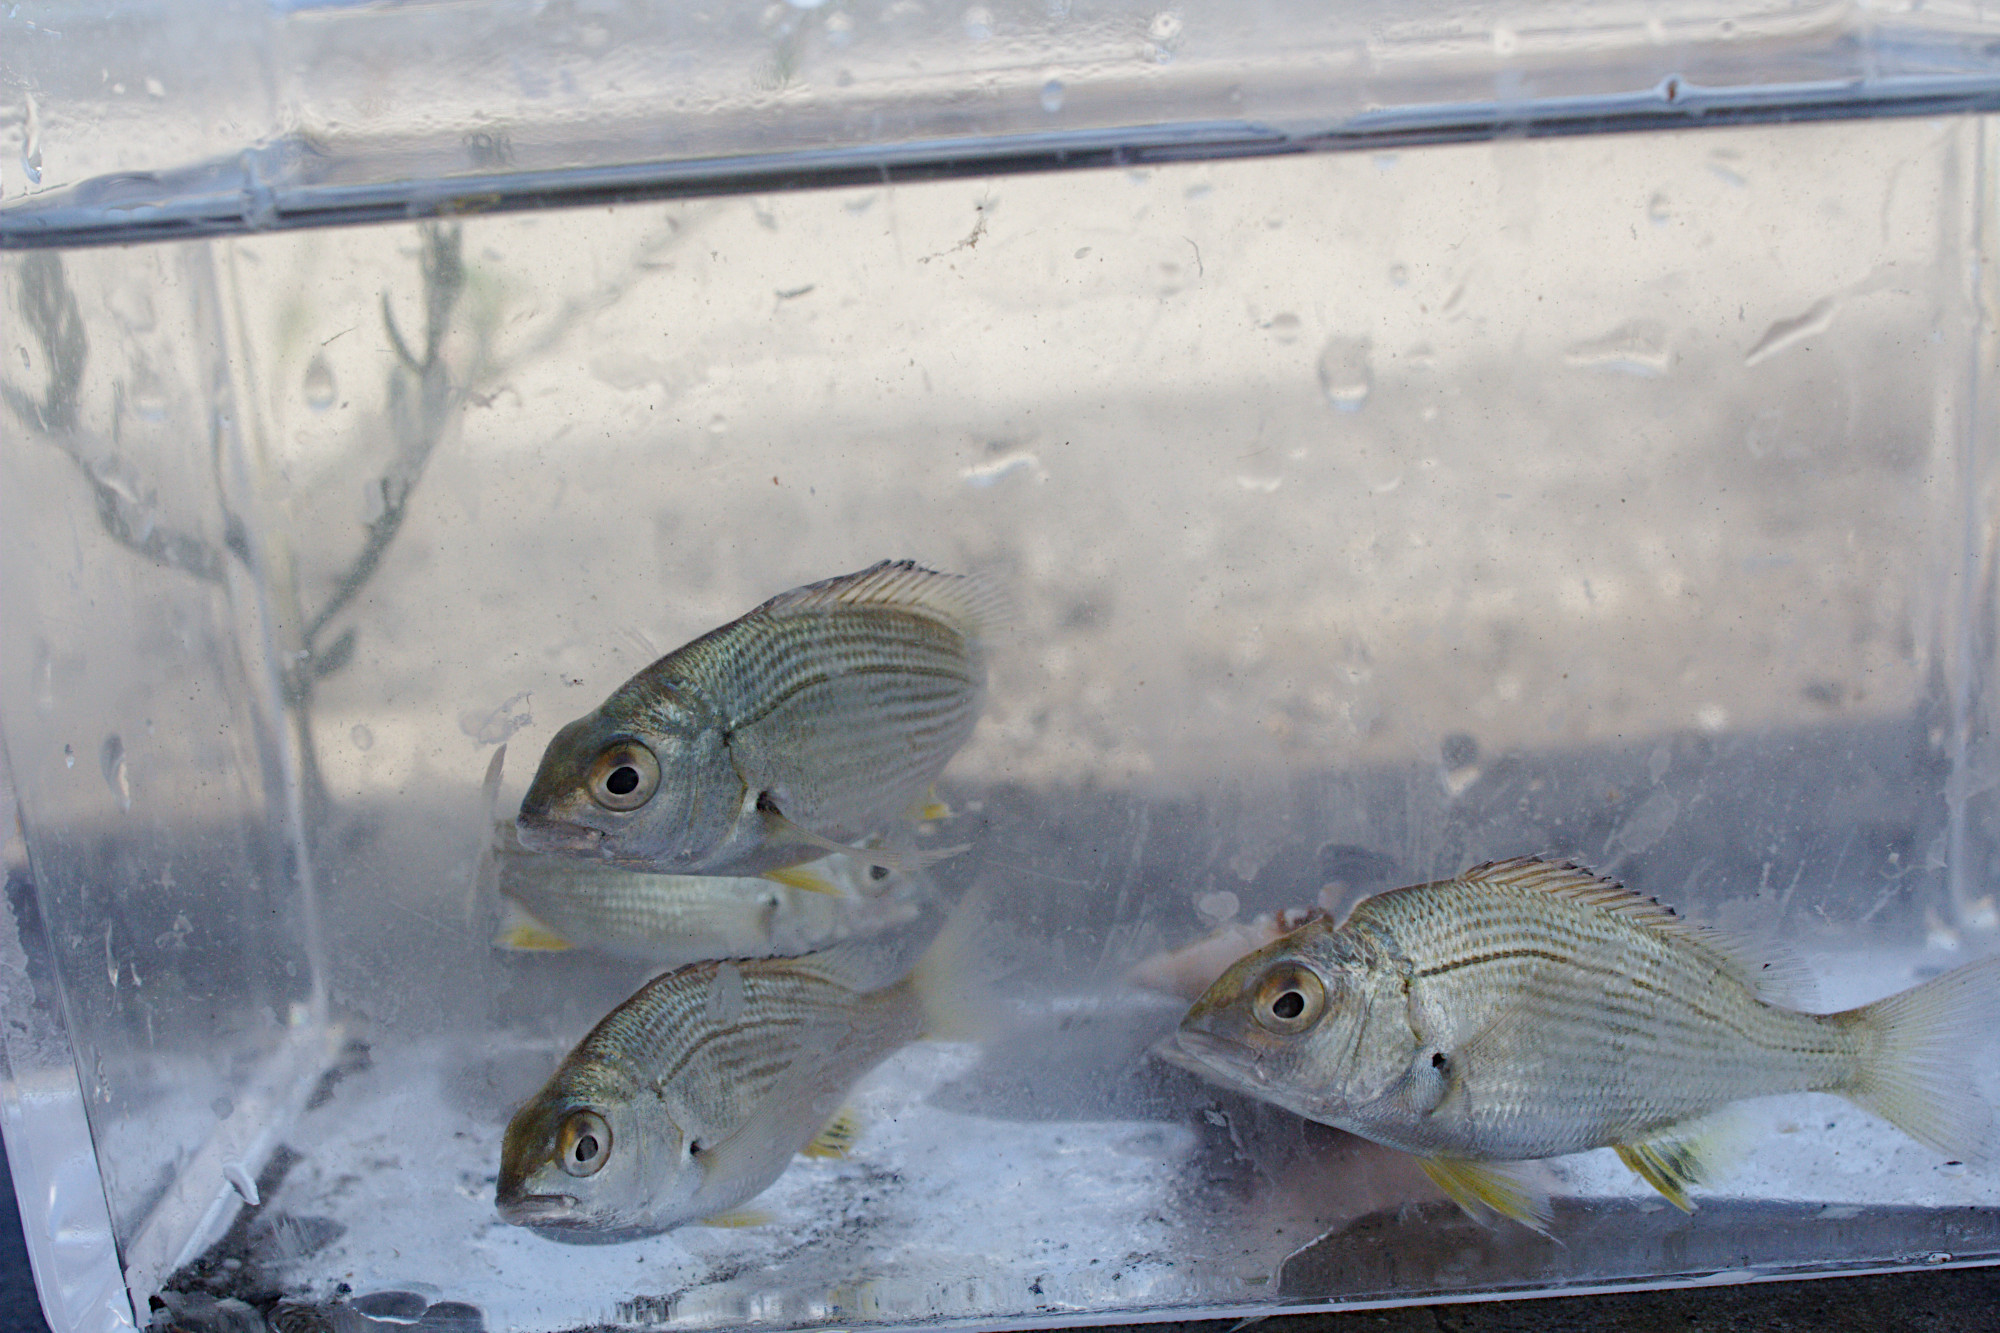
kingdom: Animalia
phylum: Chordata
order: Perciformes
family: Sparidae
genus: Acanthopagrus
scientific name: Acanthopagrus butcheri
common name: Black bream
